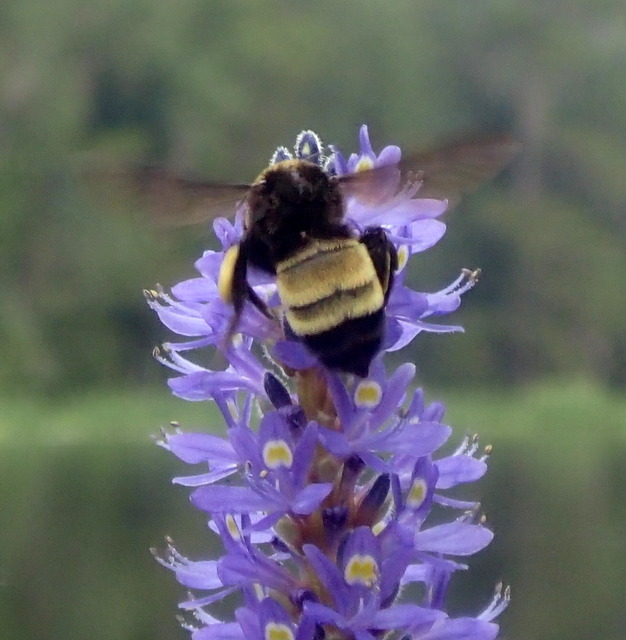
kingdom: Animalia
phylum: Arthropoda
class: Insecta
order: Hymenoptera
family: Apidae
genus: Bombus
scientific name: Bombus pensylvanicus
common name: Bumble bee
